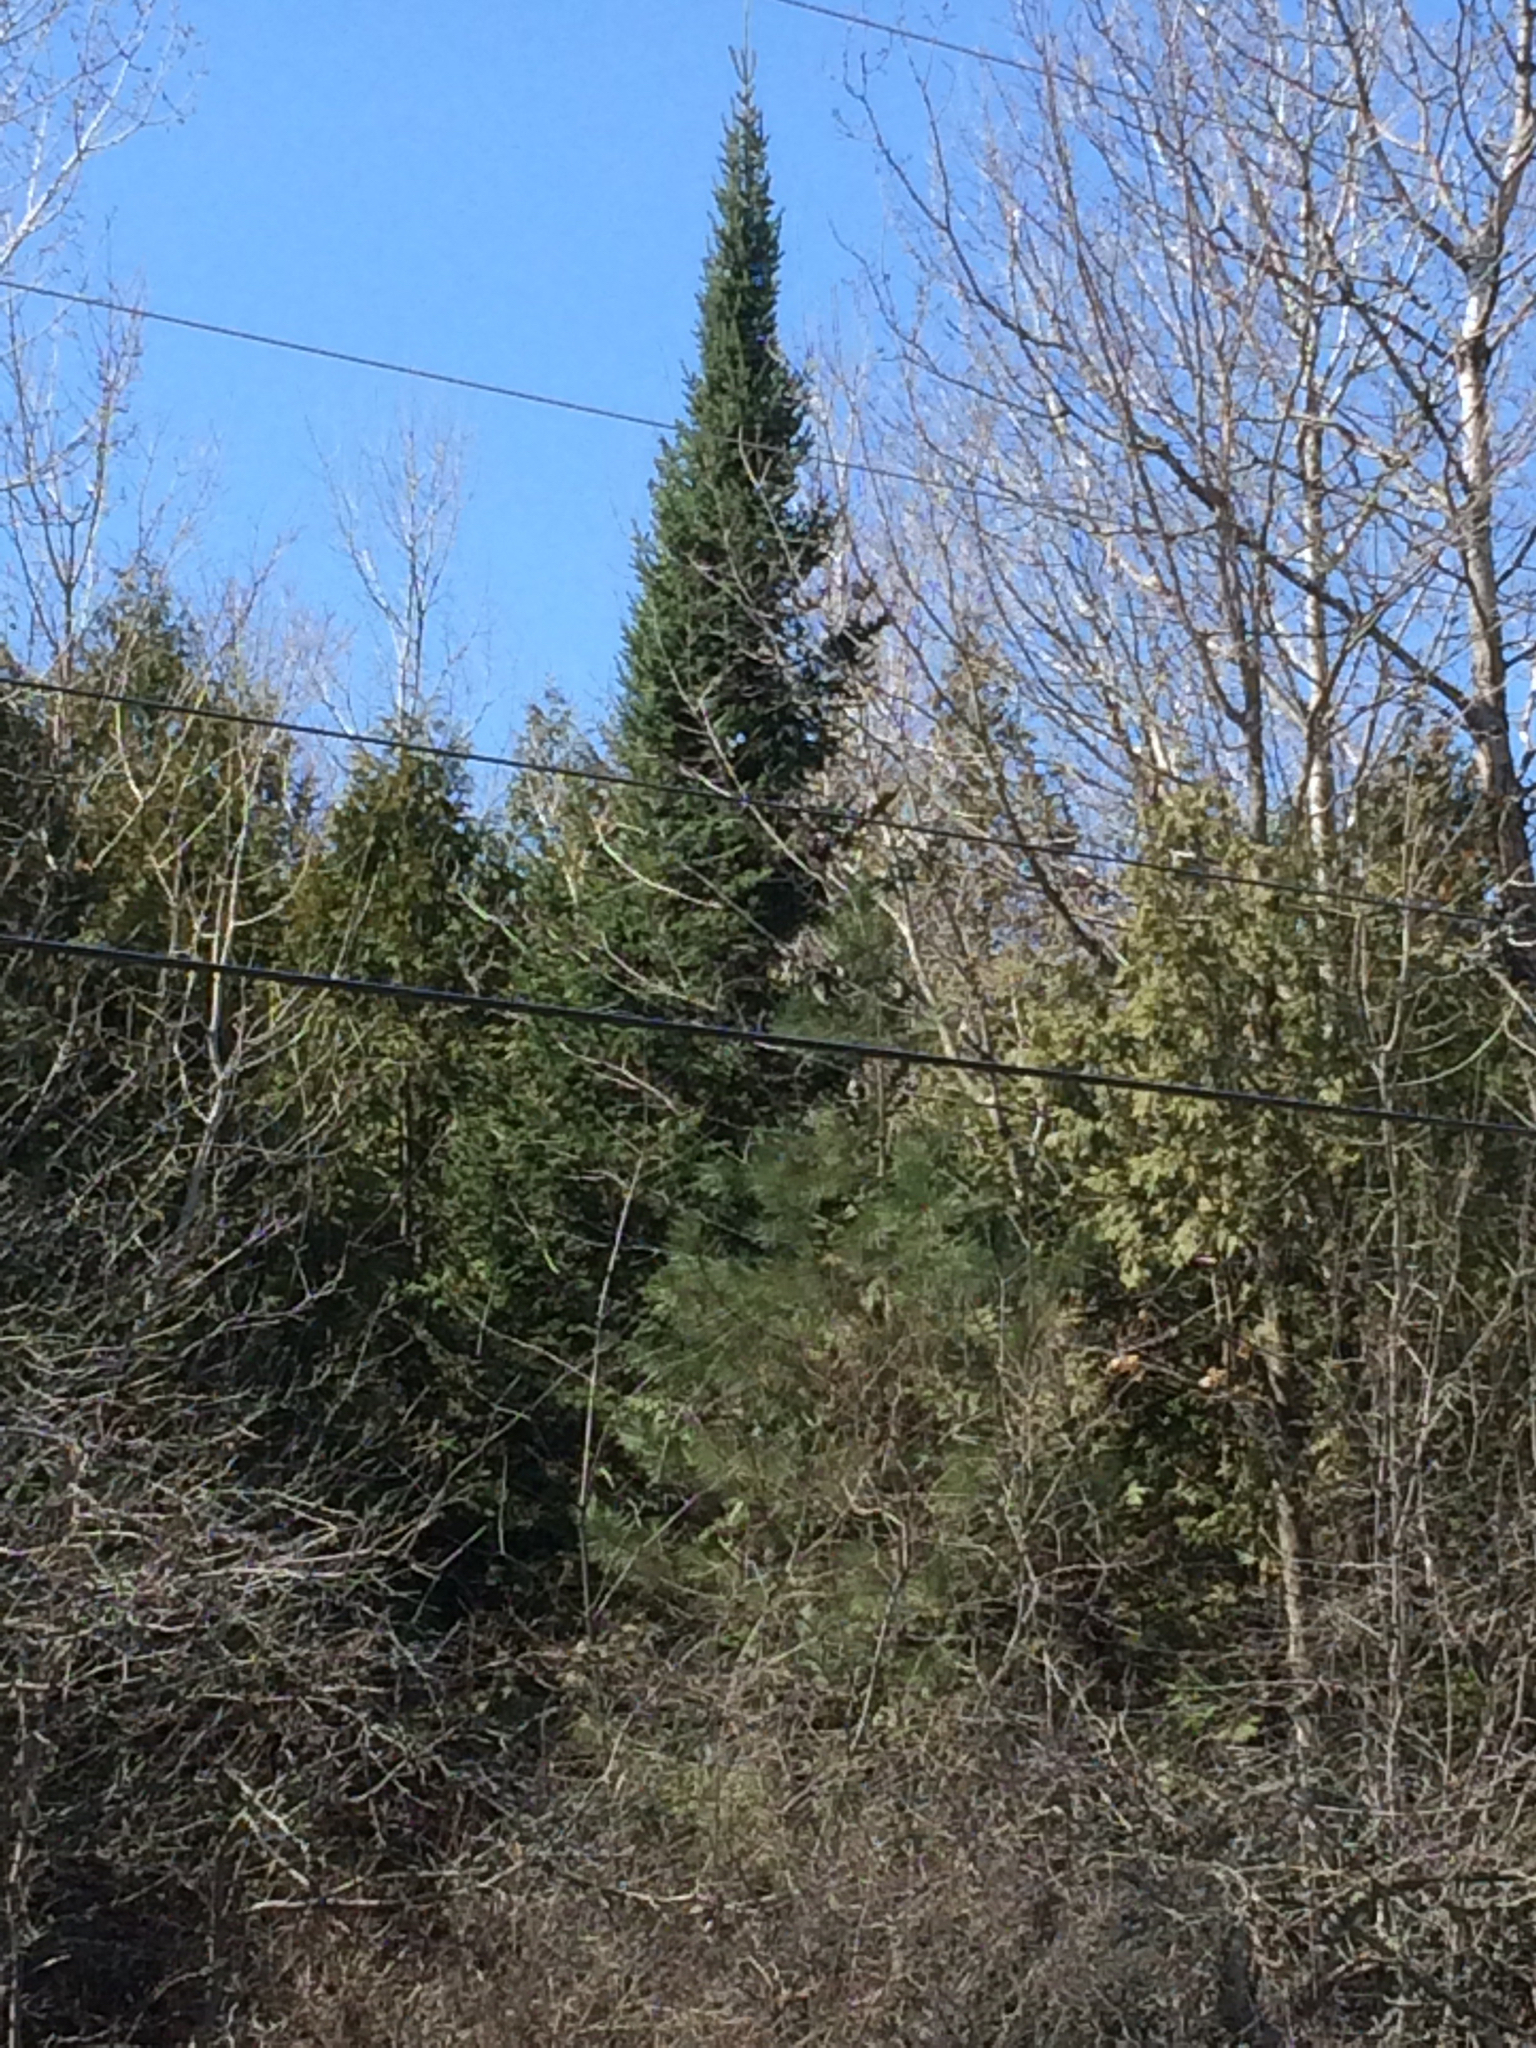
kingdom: Plantae
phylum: Tracheophyta
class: Pinopsida
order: Pinales
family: Pinaceae
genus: Abies
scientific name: Abies balsamea
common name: Balsam fir
